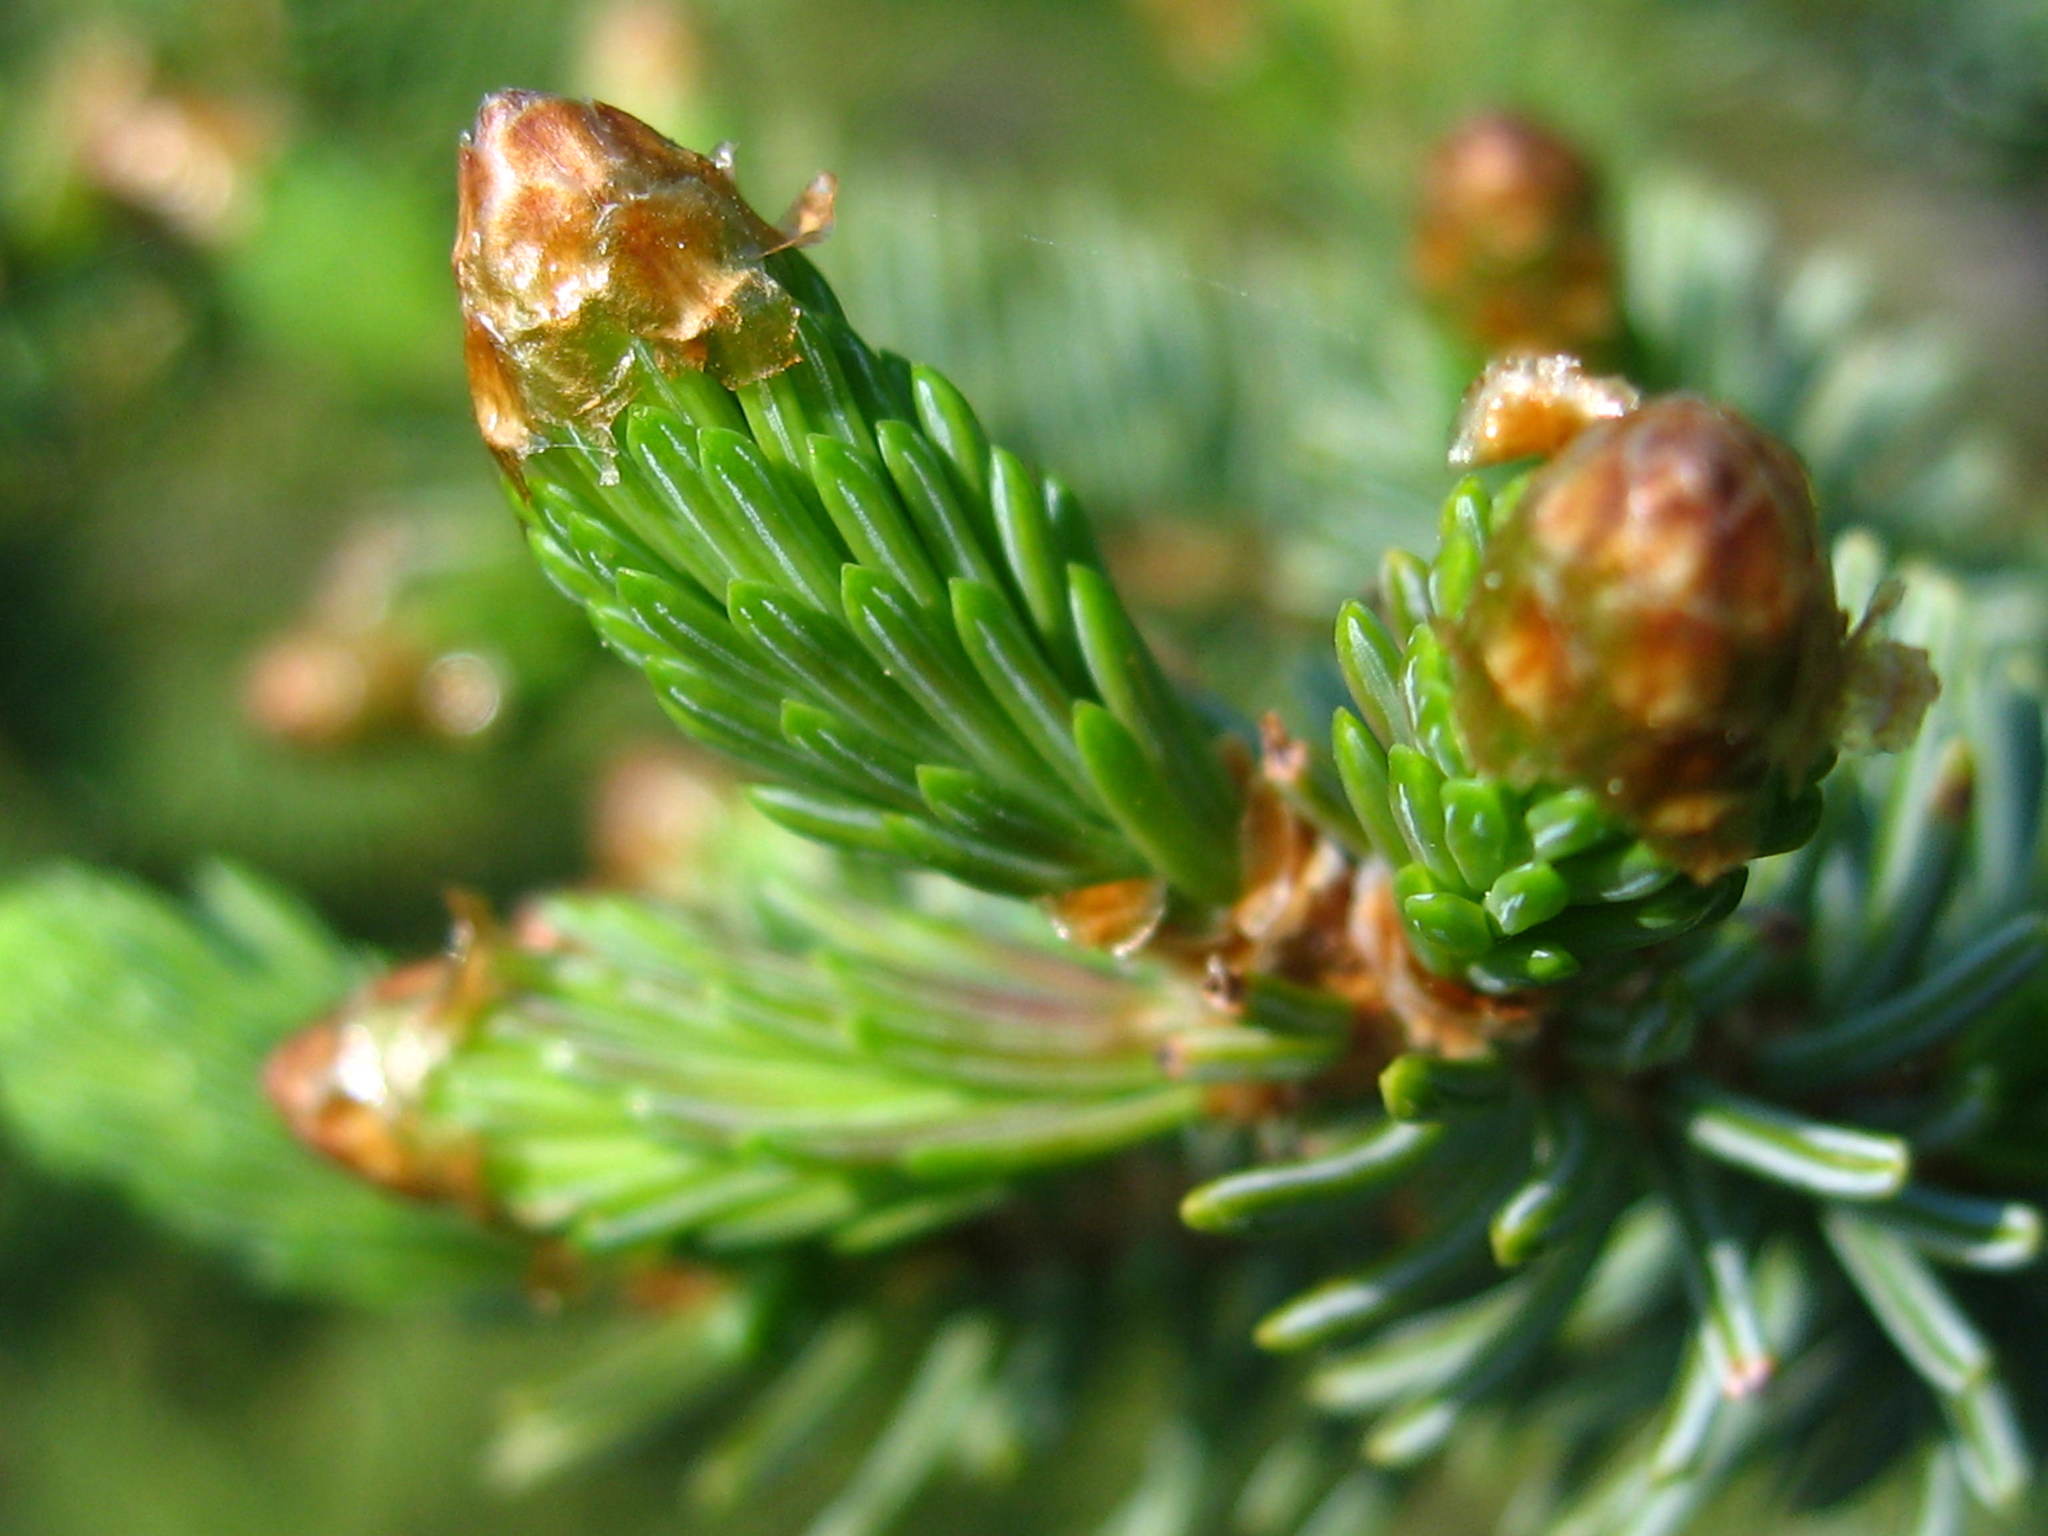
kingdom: Plantae
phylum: Tracheophyta
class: Pinopsida
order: Pinales
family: Pinaceae
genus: Picea
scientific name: Picea glauca
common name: White spruce
